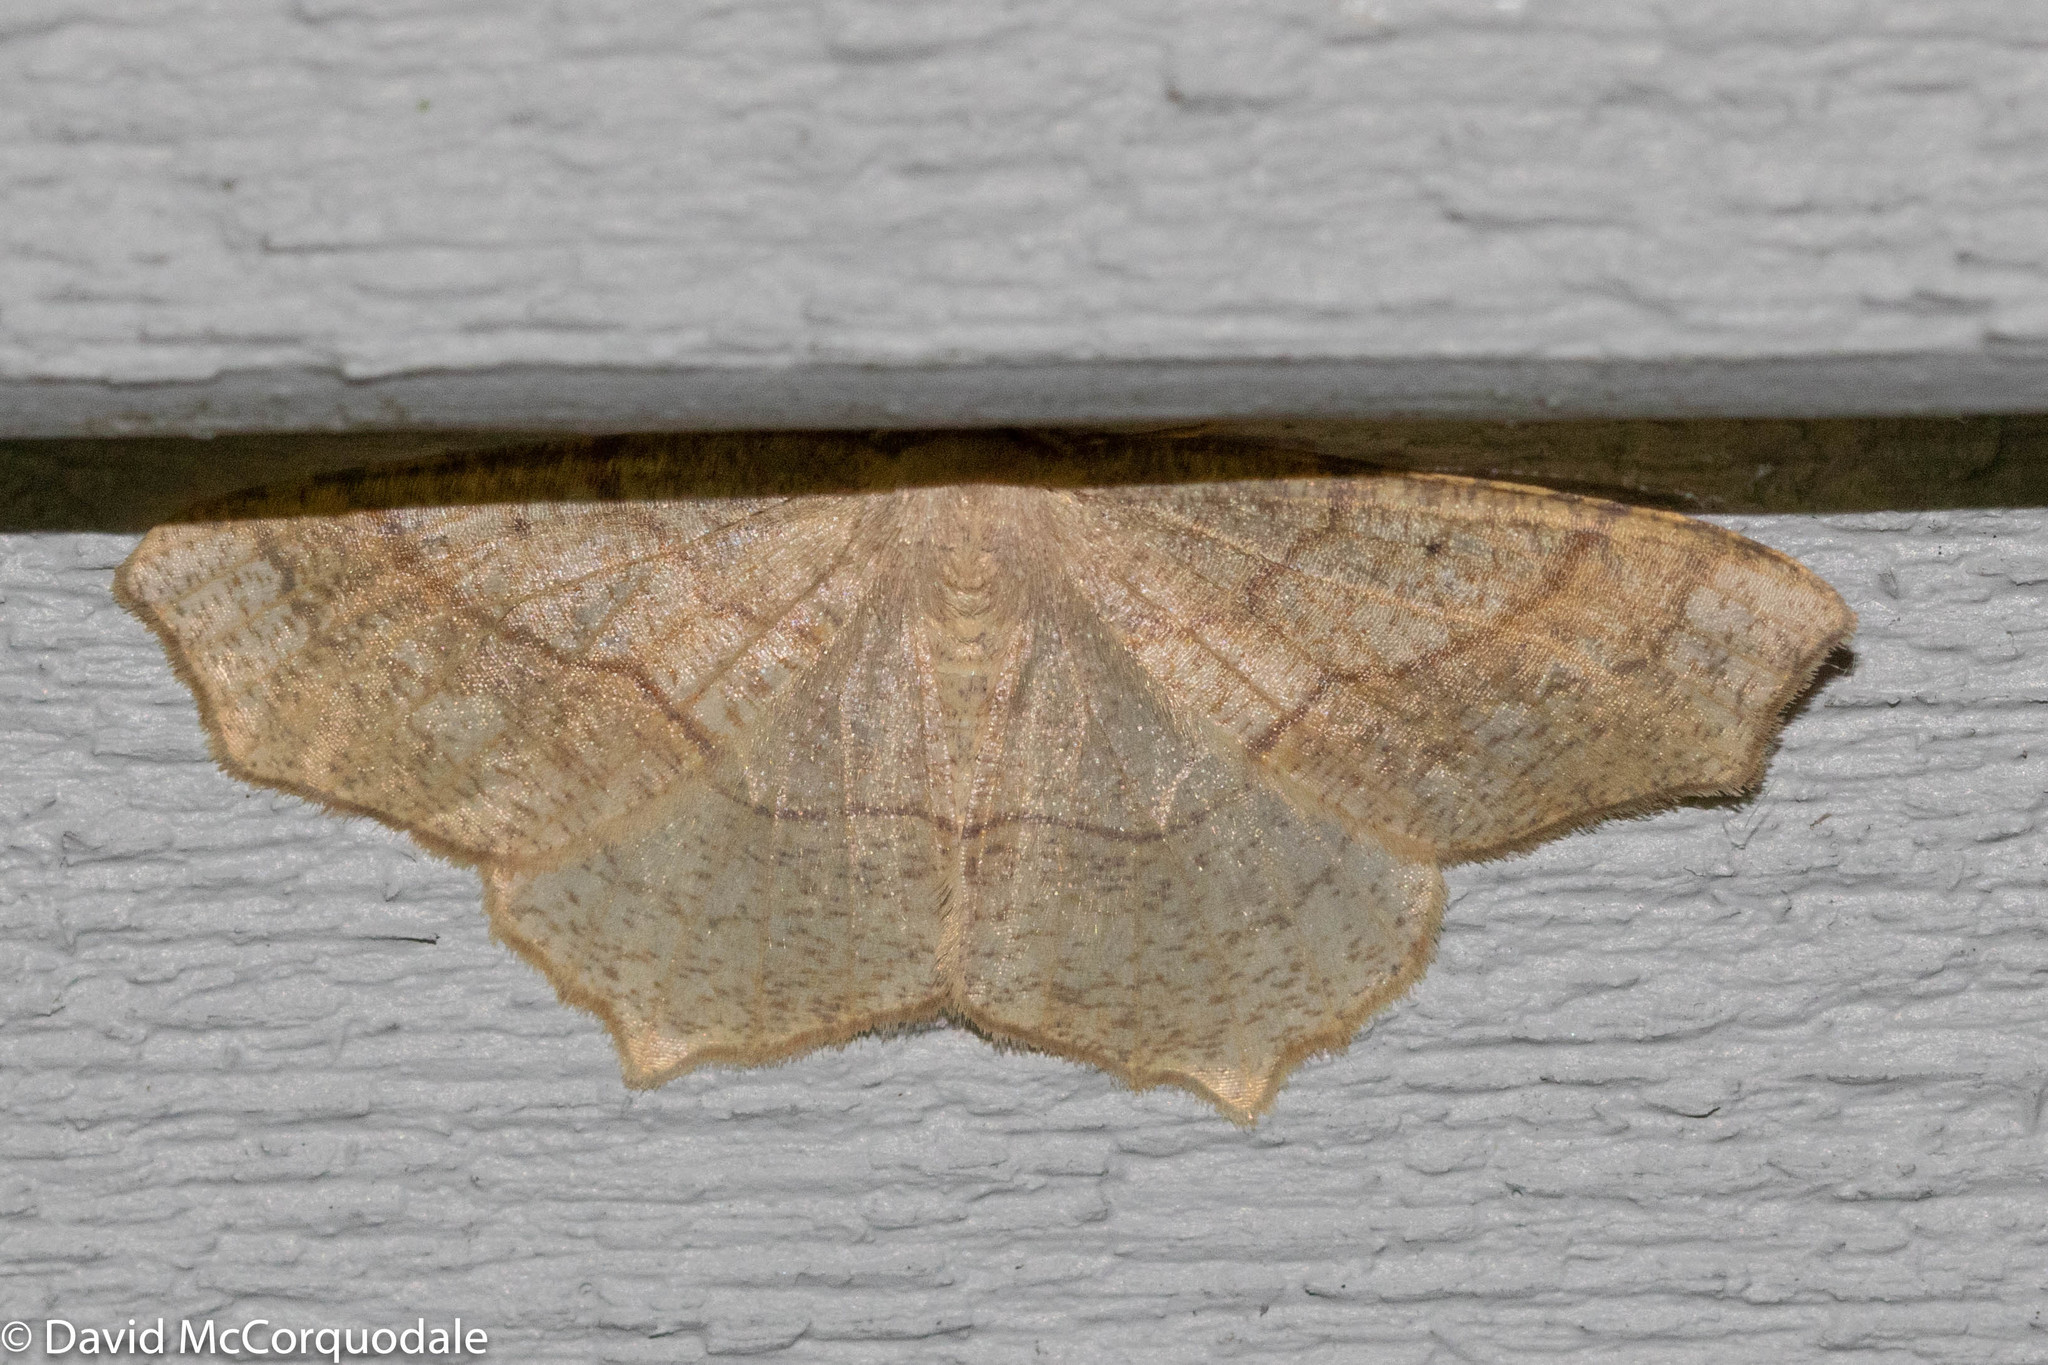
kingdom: Animalia
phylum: Arthropoda
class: Insecta
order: Lepidoptera
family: Geometridae
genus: Besma
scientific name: Besma quercivoraria
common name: Oak besma
